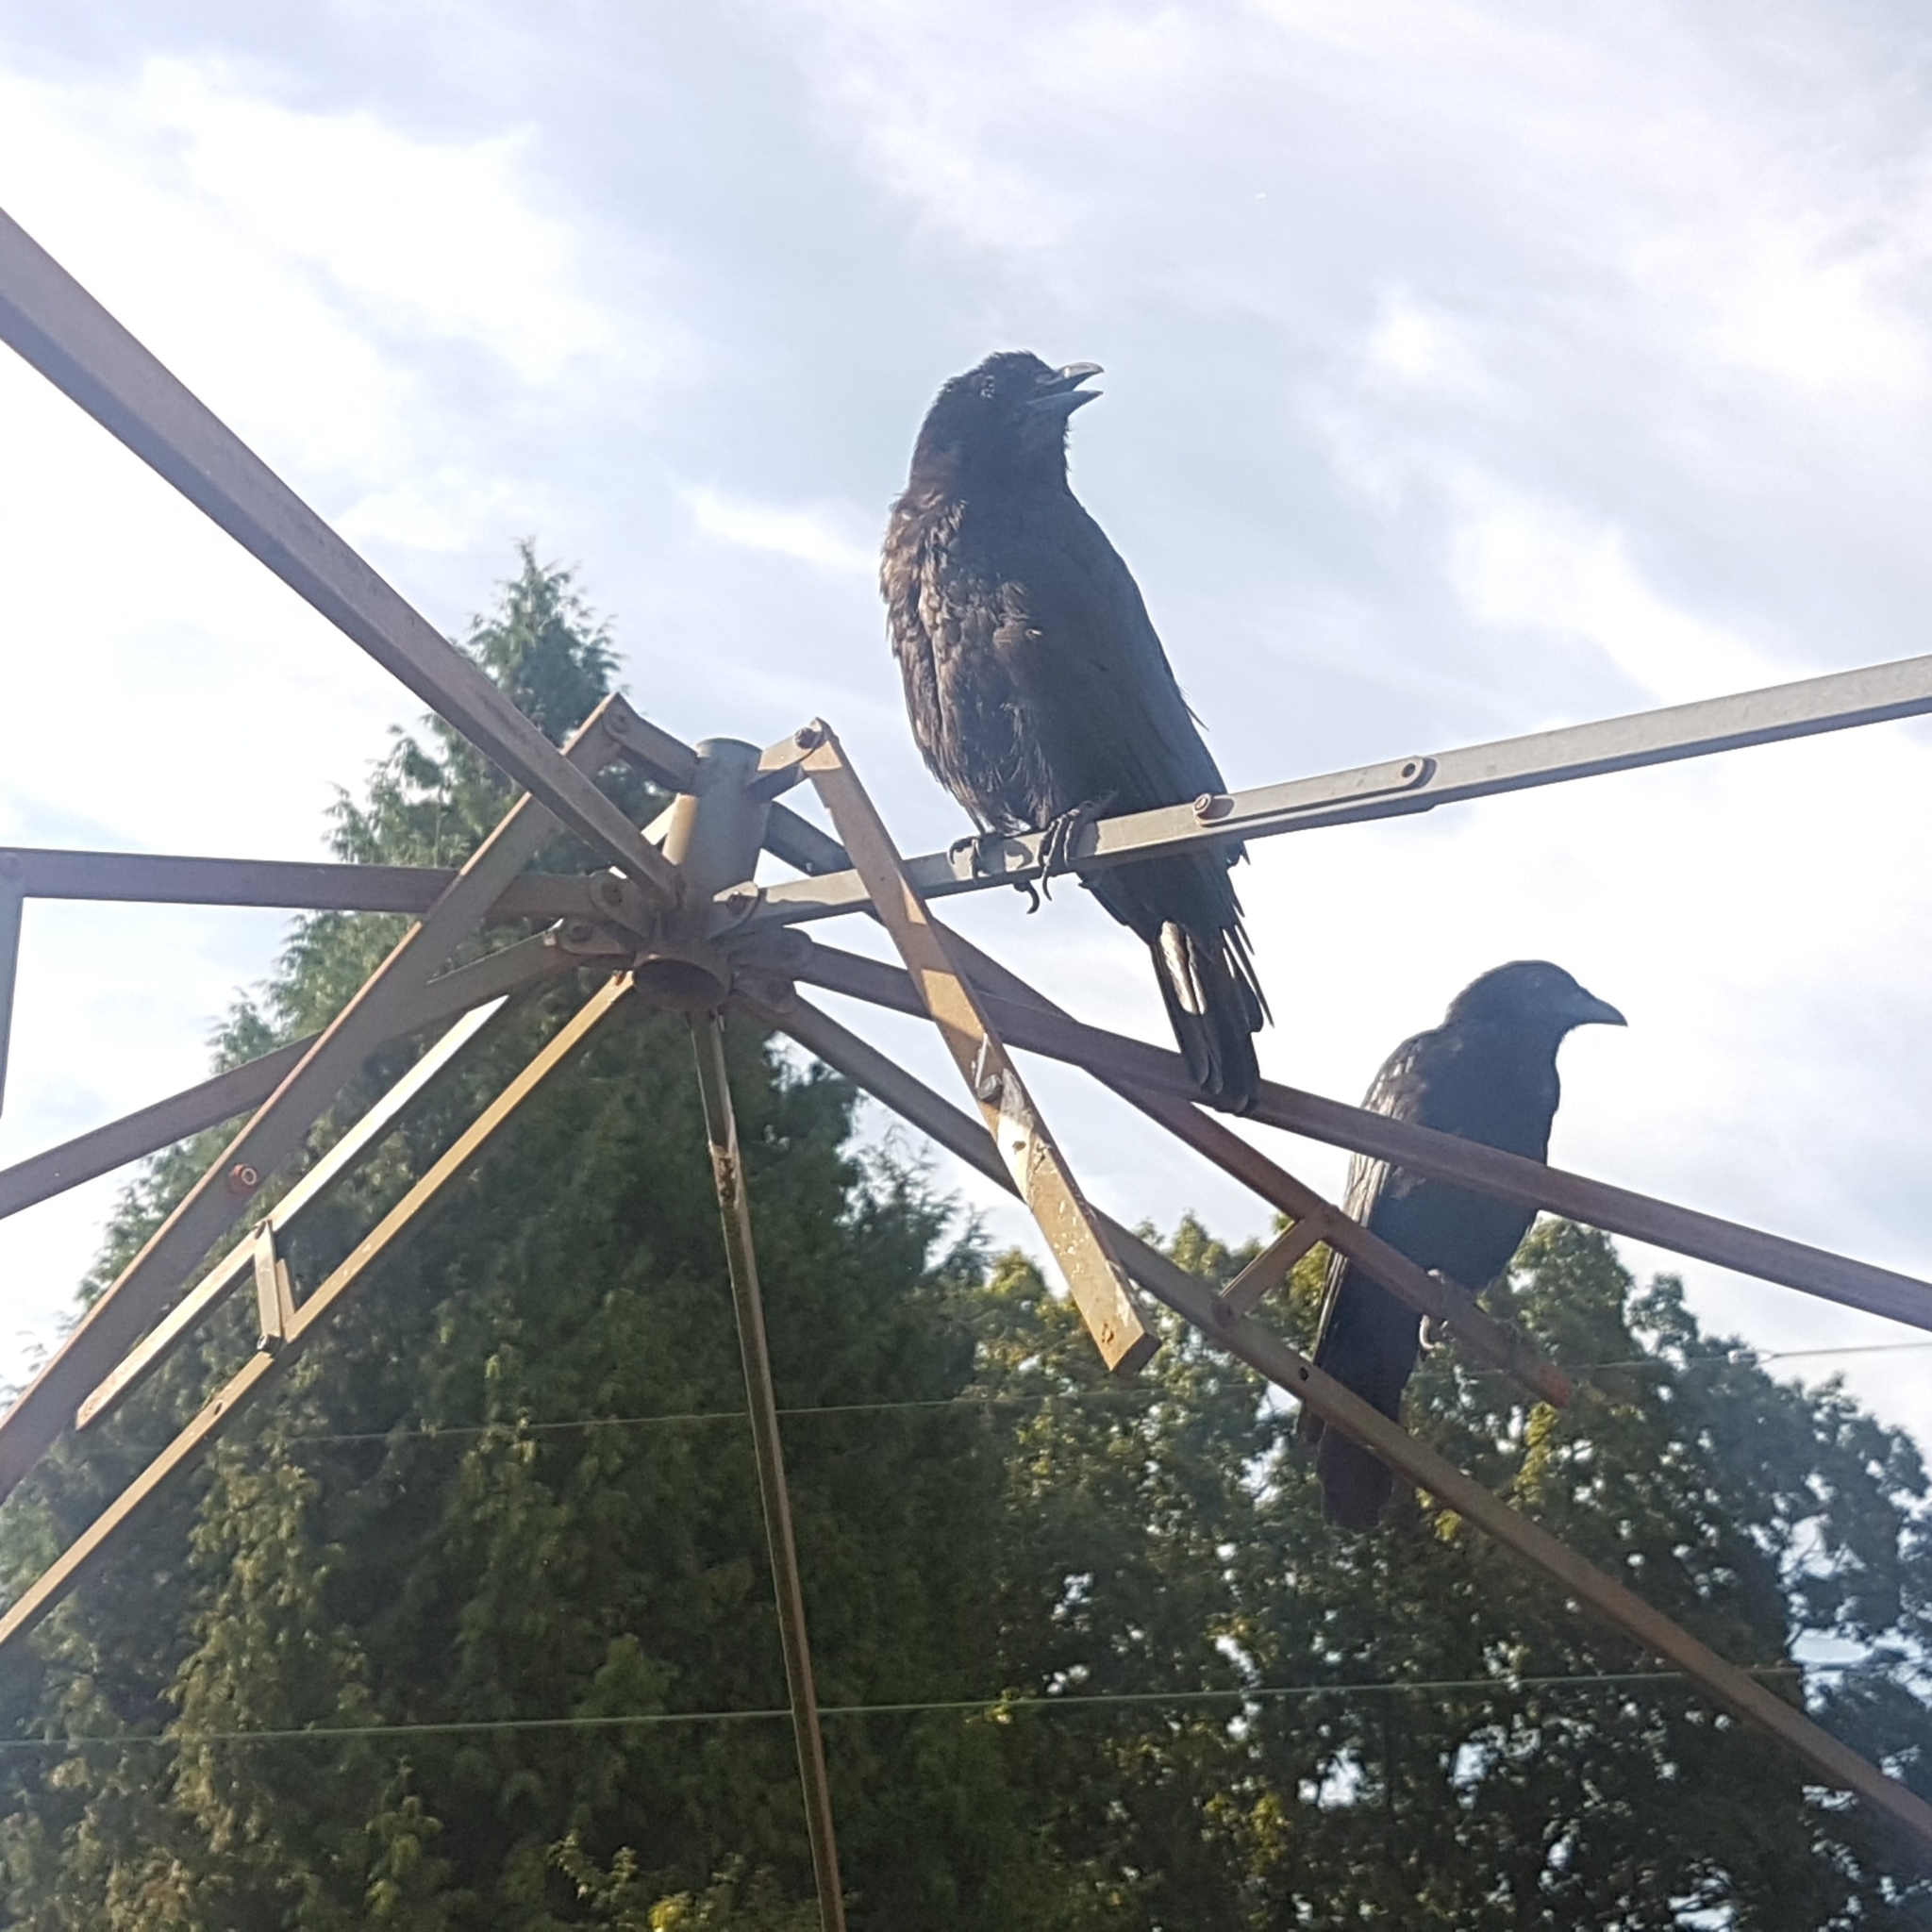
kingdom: Animalia
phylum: Chordata
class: Aves
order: Passeriformes
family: Corvidae
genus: Corvus
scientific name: Corvus brachyrhynchos
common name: American crow
